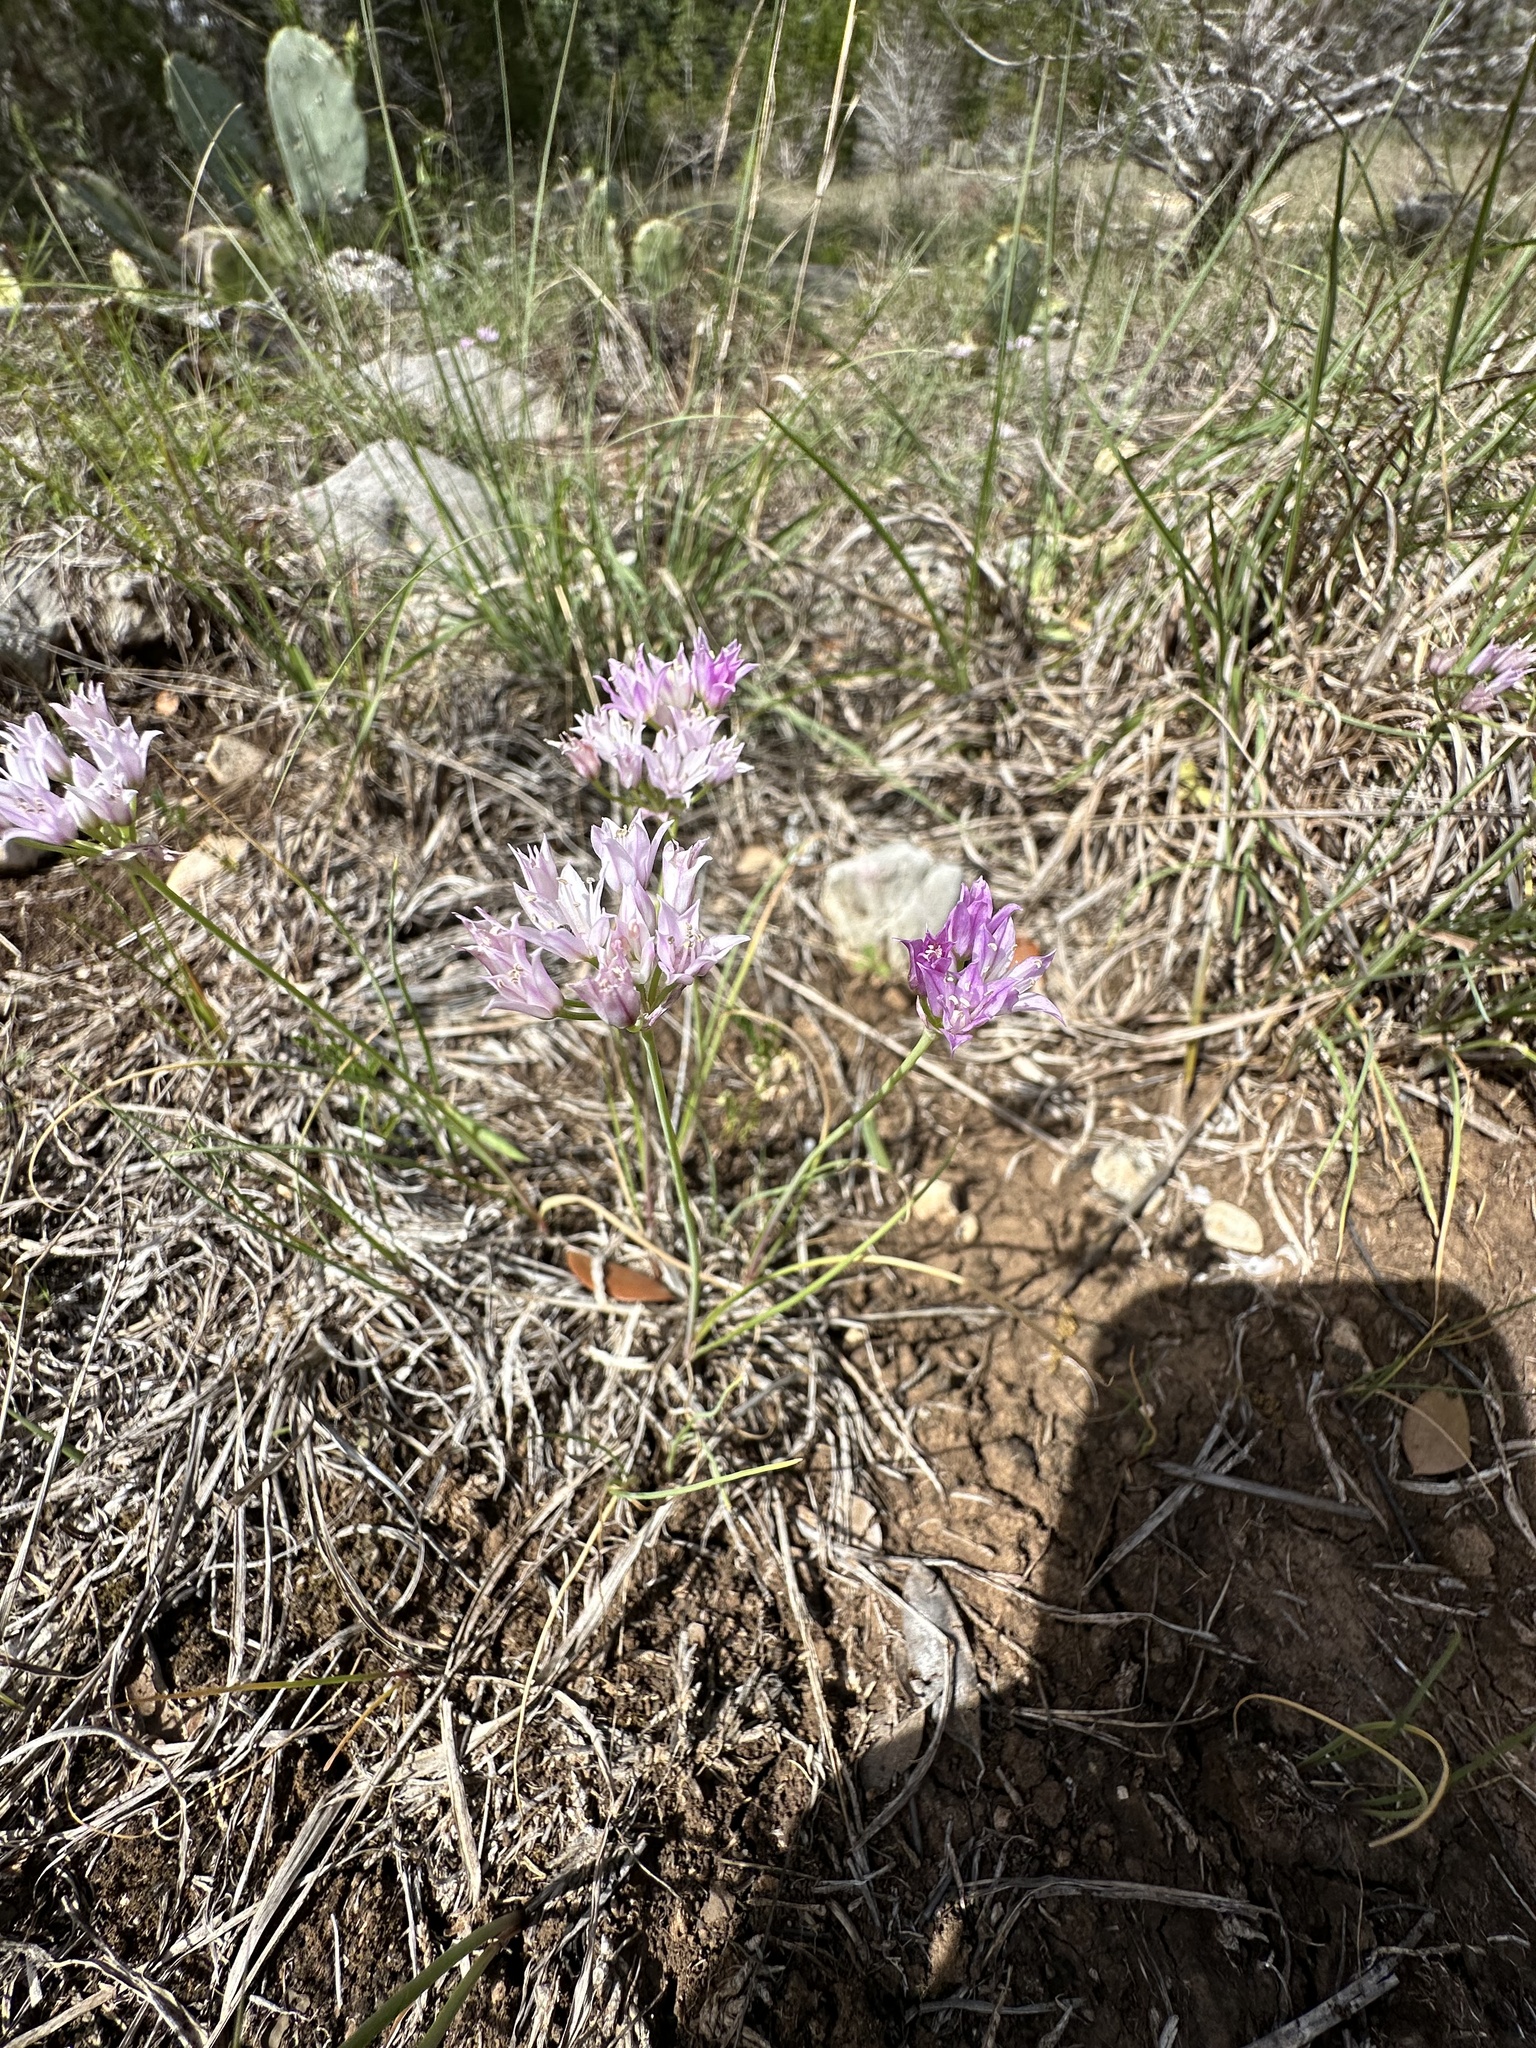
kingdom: Plantae
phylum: Tracheophyta
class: Liliopsida
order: Asparagales
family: Amaryllidaceae
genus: Allium
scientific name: Allium drummondii
